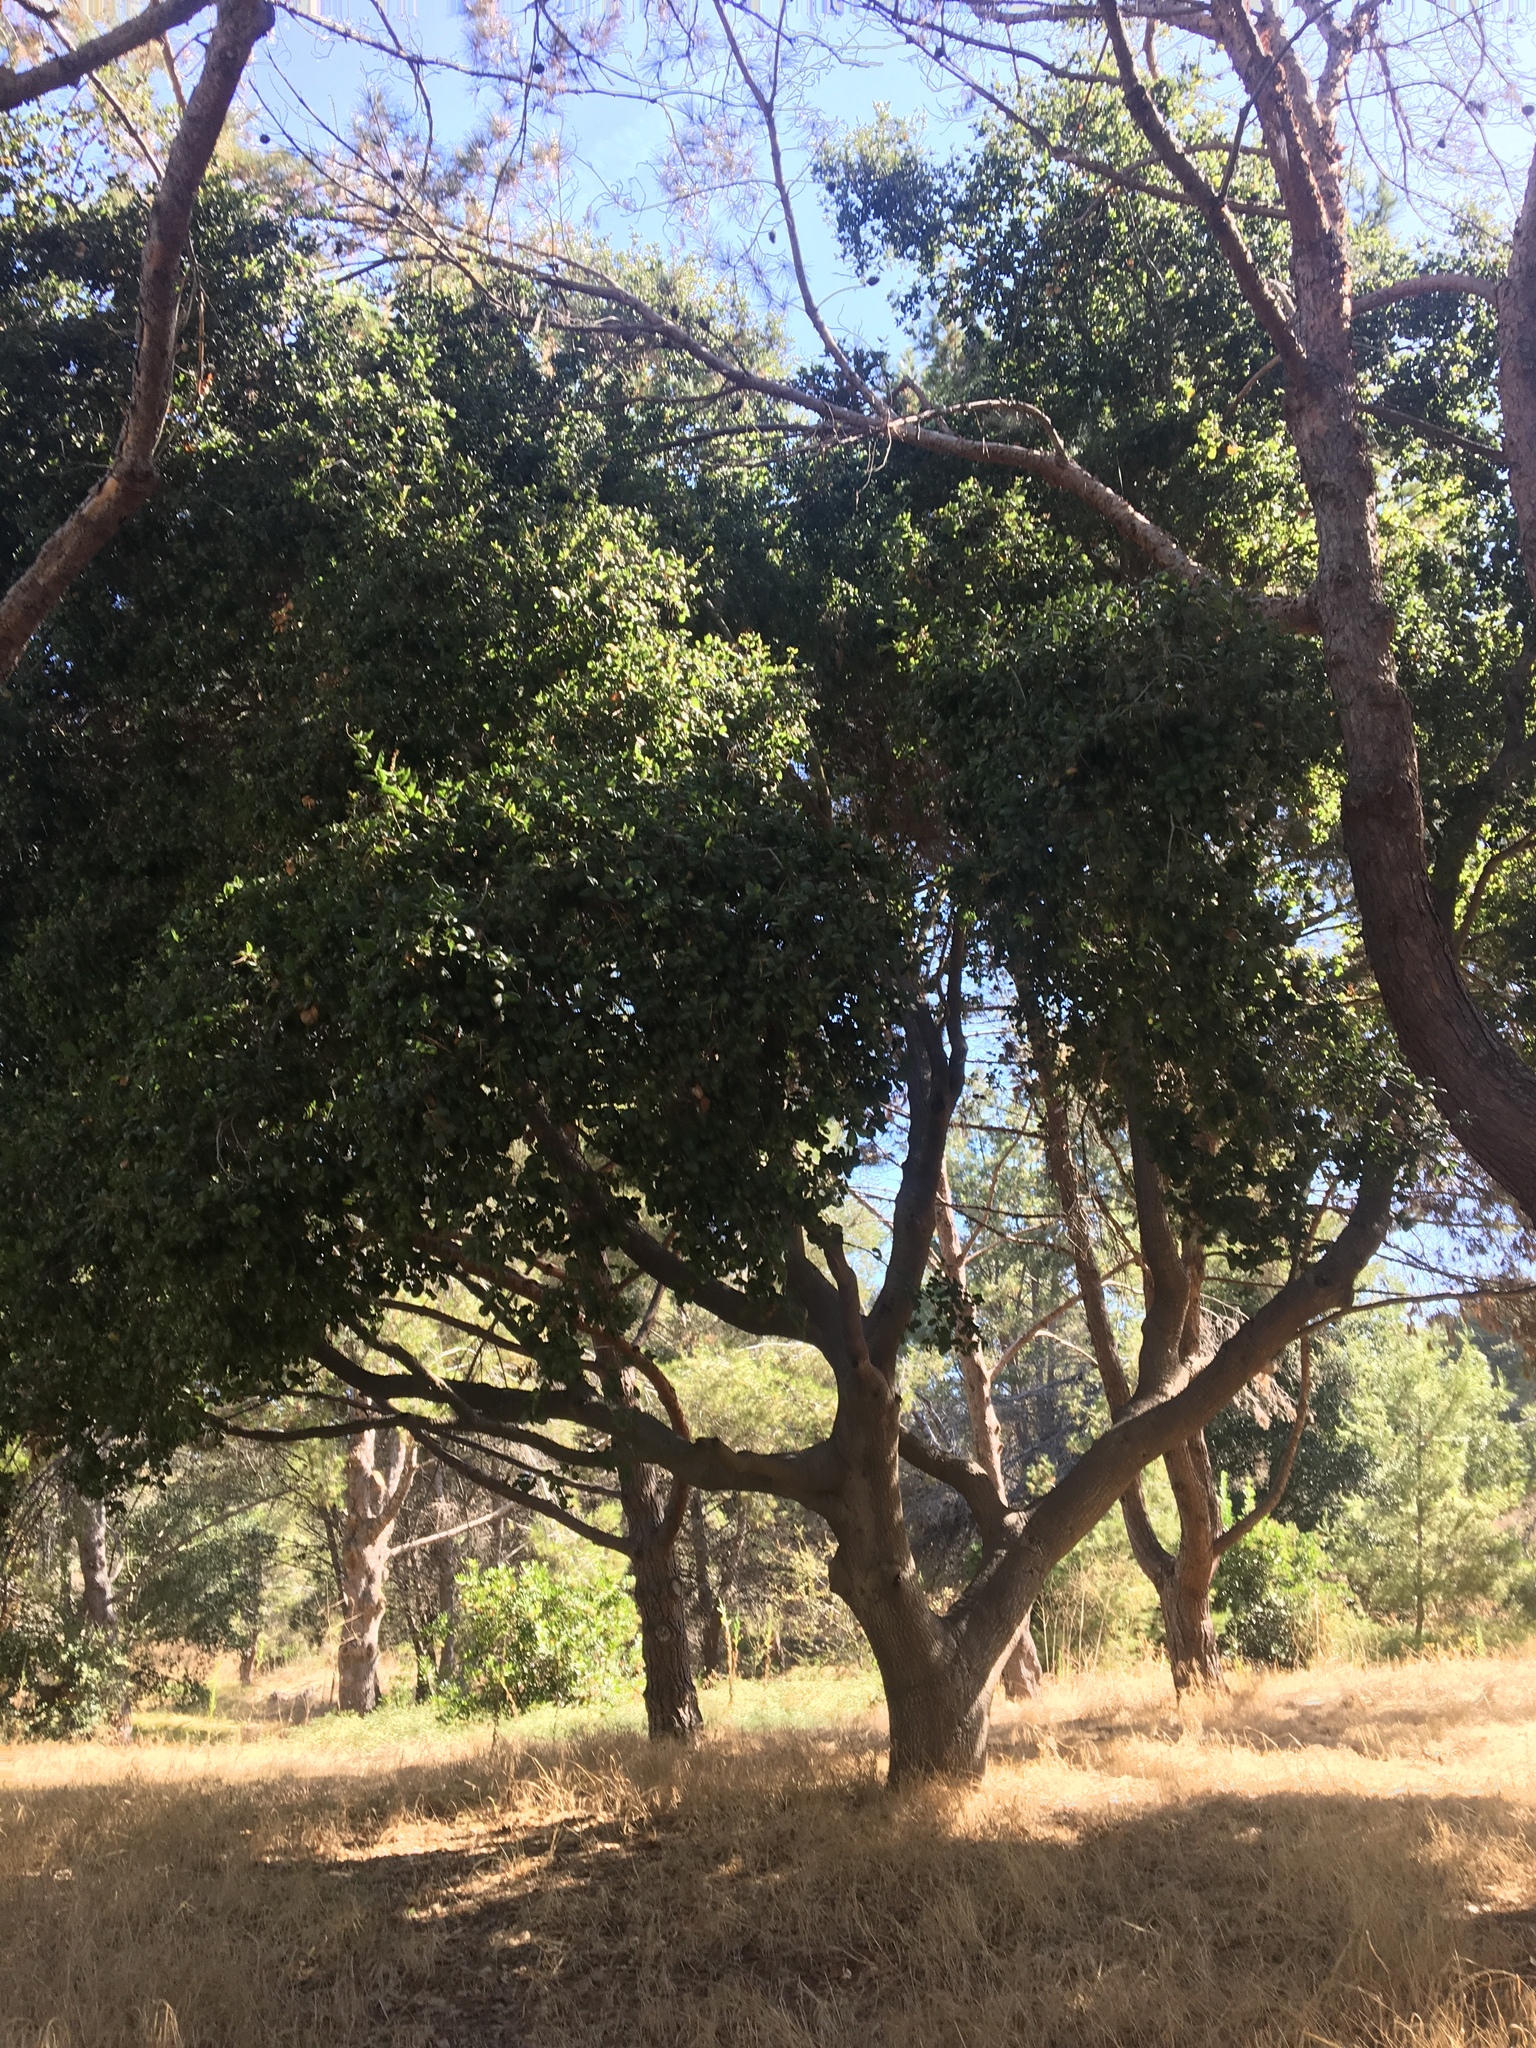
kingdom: Plantae
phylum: Tracheophyta
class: Magnoliopsida
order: Fagales
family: Fagaceae
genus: Quercus
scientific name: Quercus agrifolia
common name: California live oak
